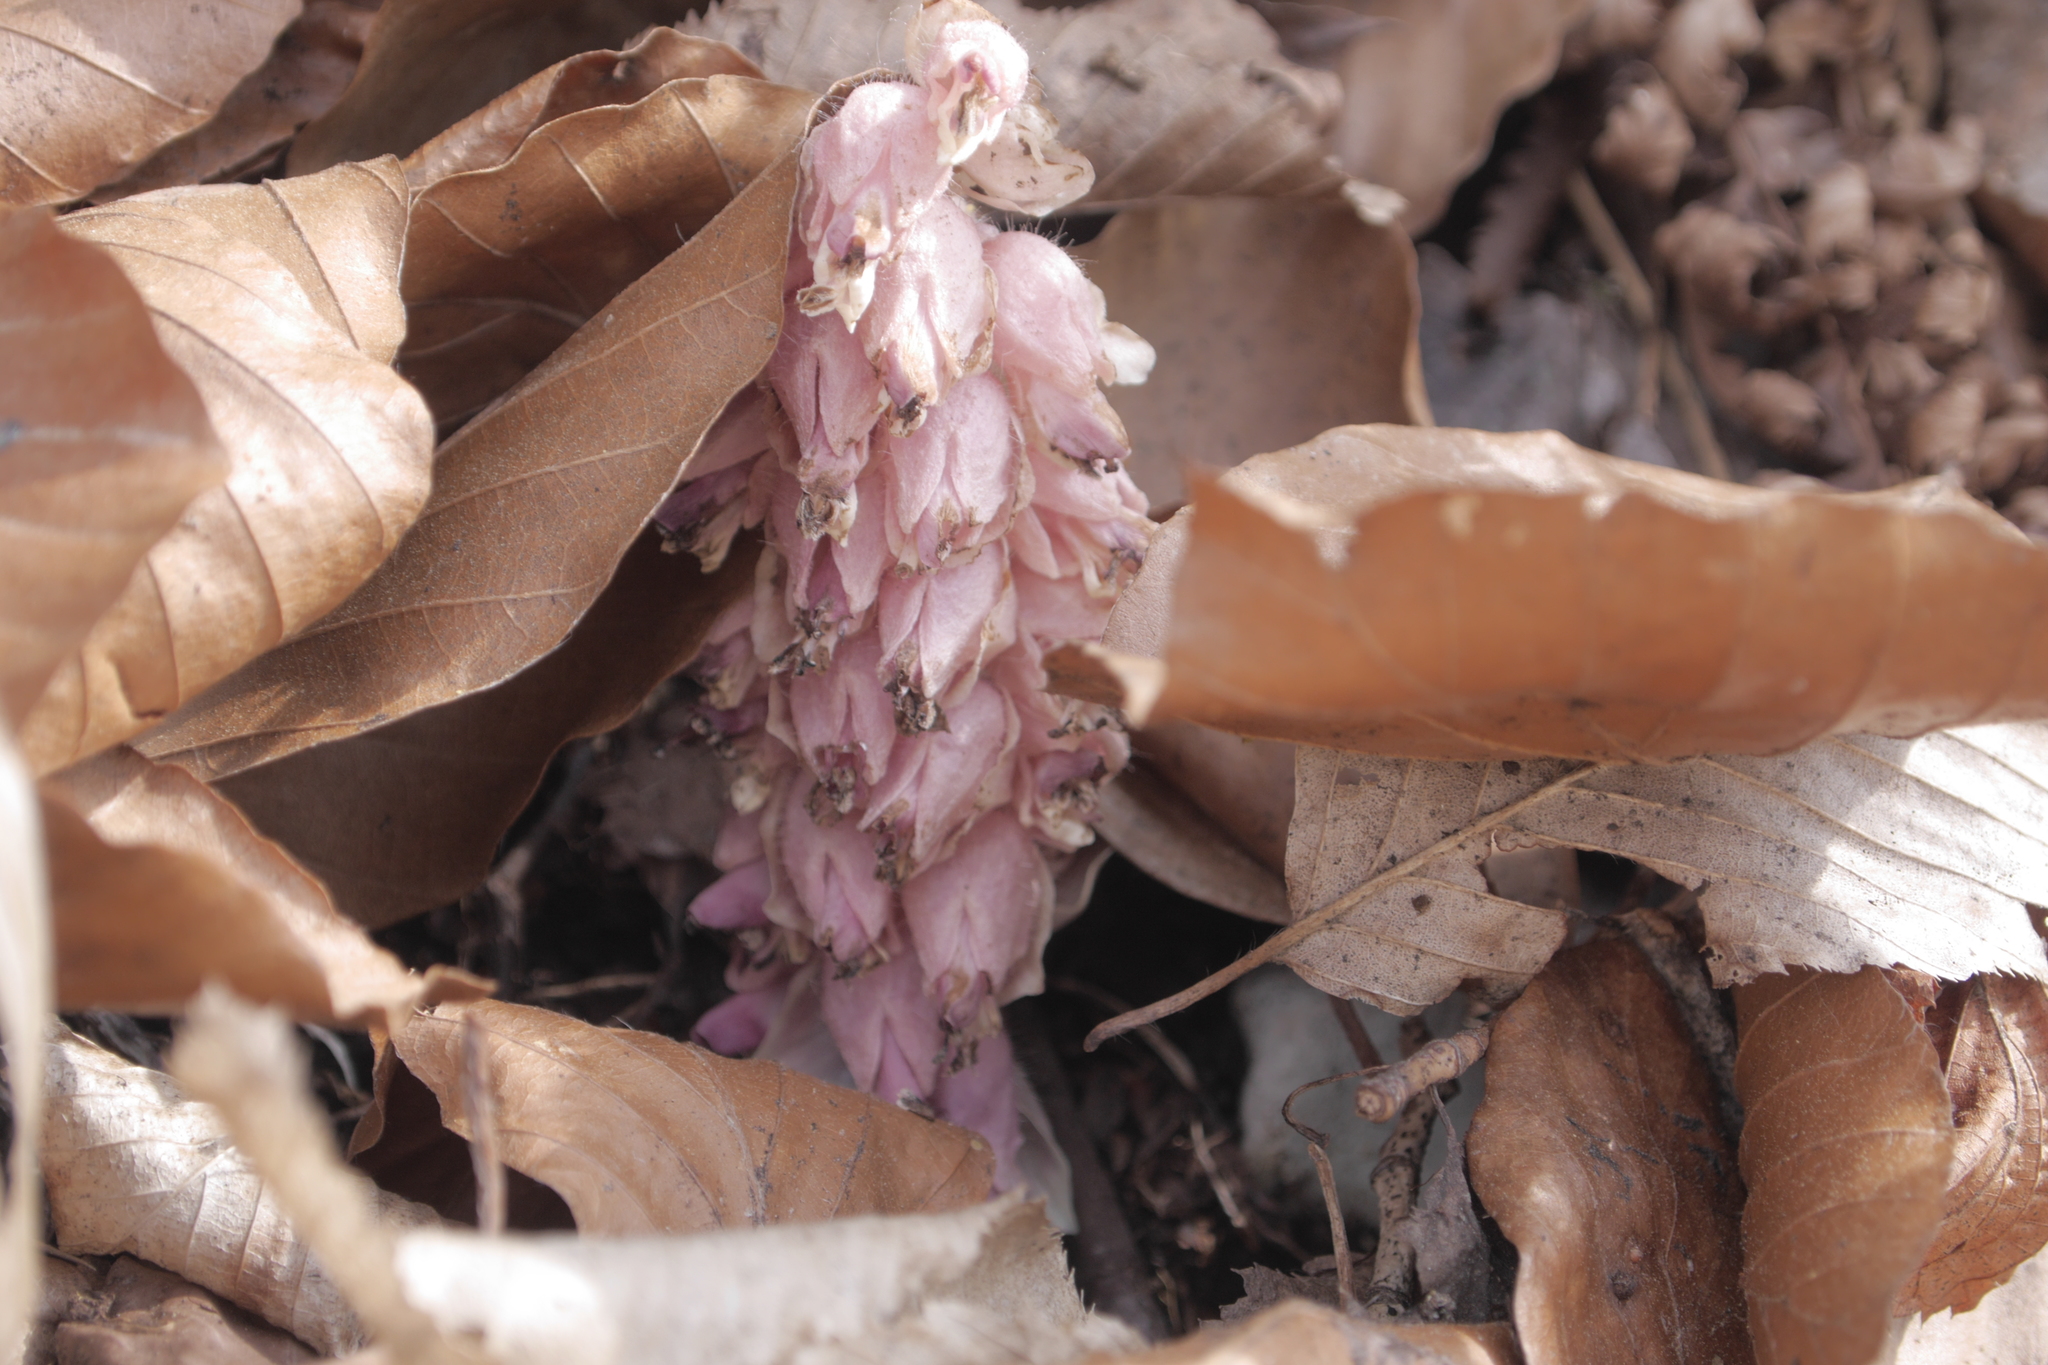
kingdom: Plantae
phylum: Tracheophyta
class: Magnoliopsida
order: Lamiales
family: Orobanchaceae
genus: Lathraea
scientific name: Lathraea squamaria
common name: Toothwort
